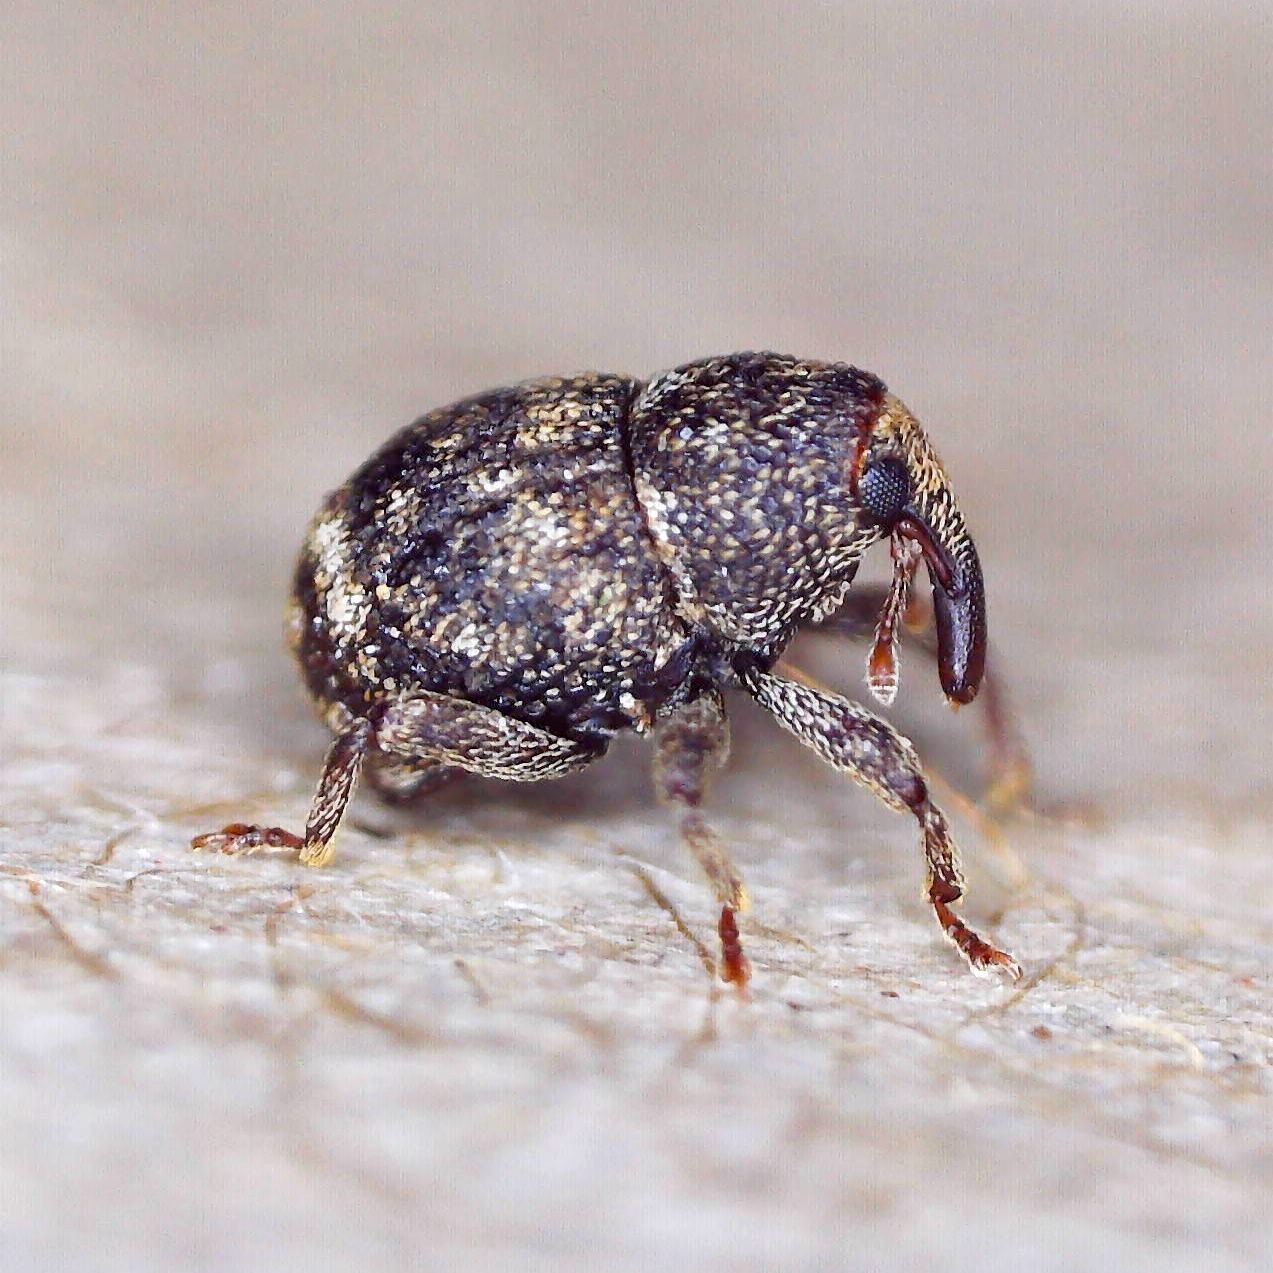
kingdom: Animalia
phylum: Arthropoda
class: Insecta
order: Coleoptera
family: Curculionidae
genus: Acalles
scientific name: Acalles ptinoides
